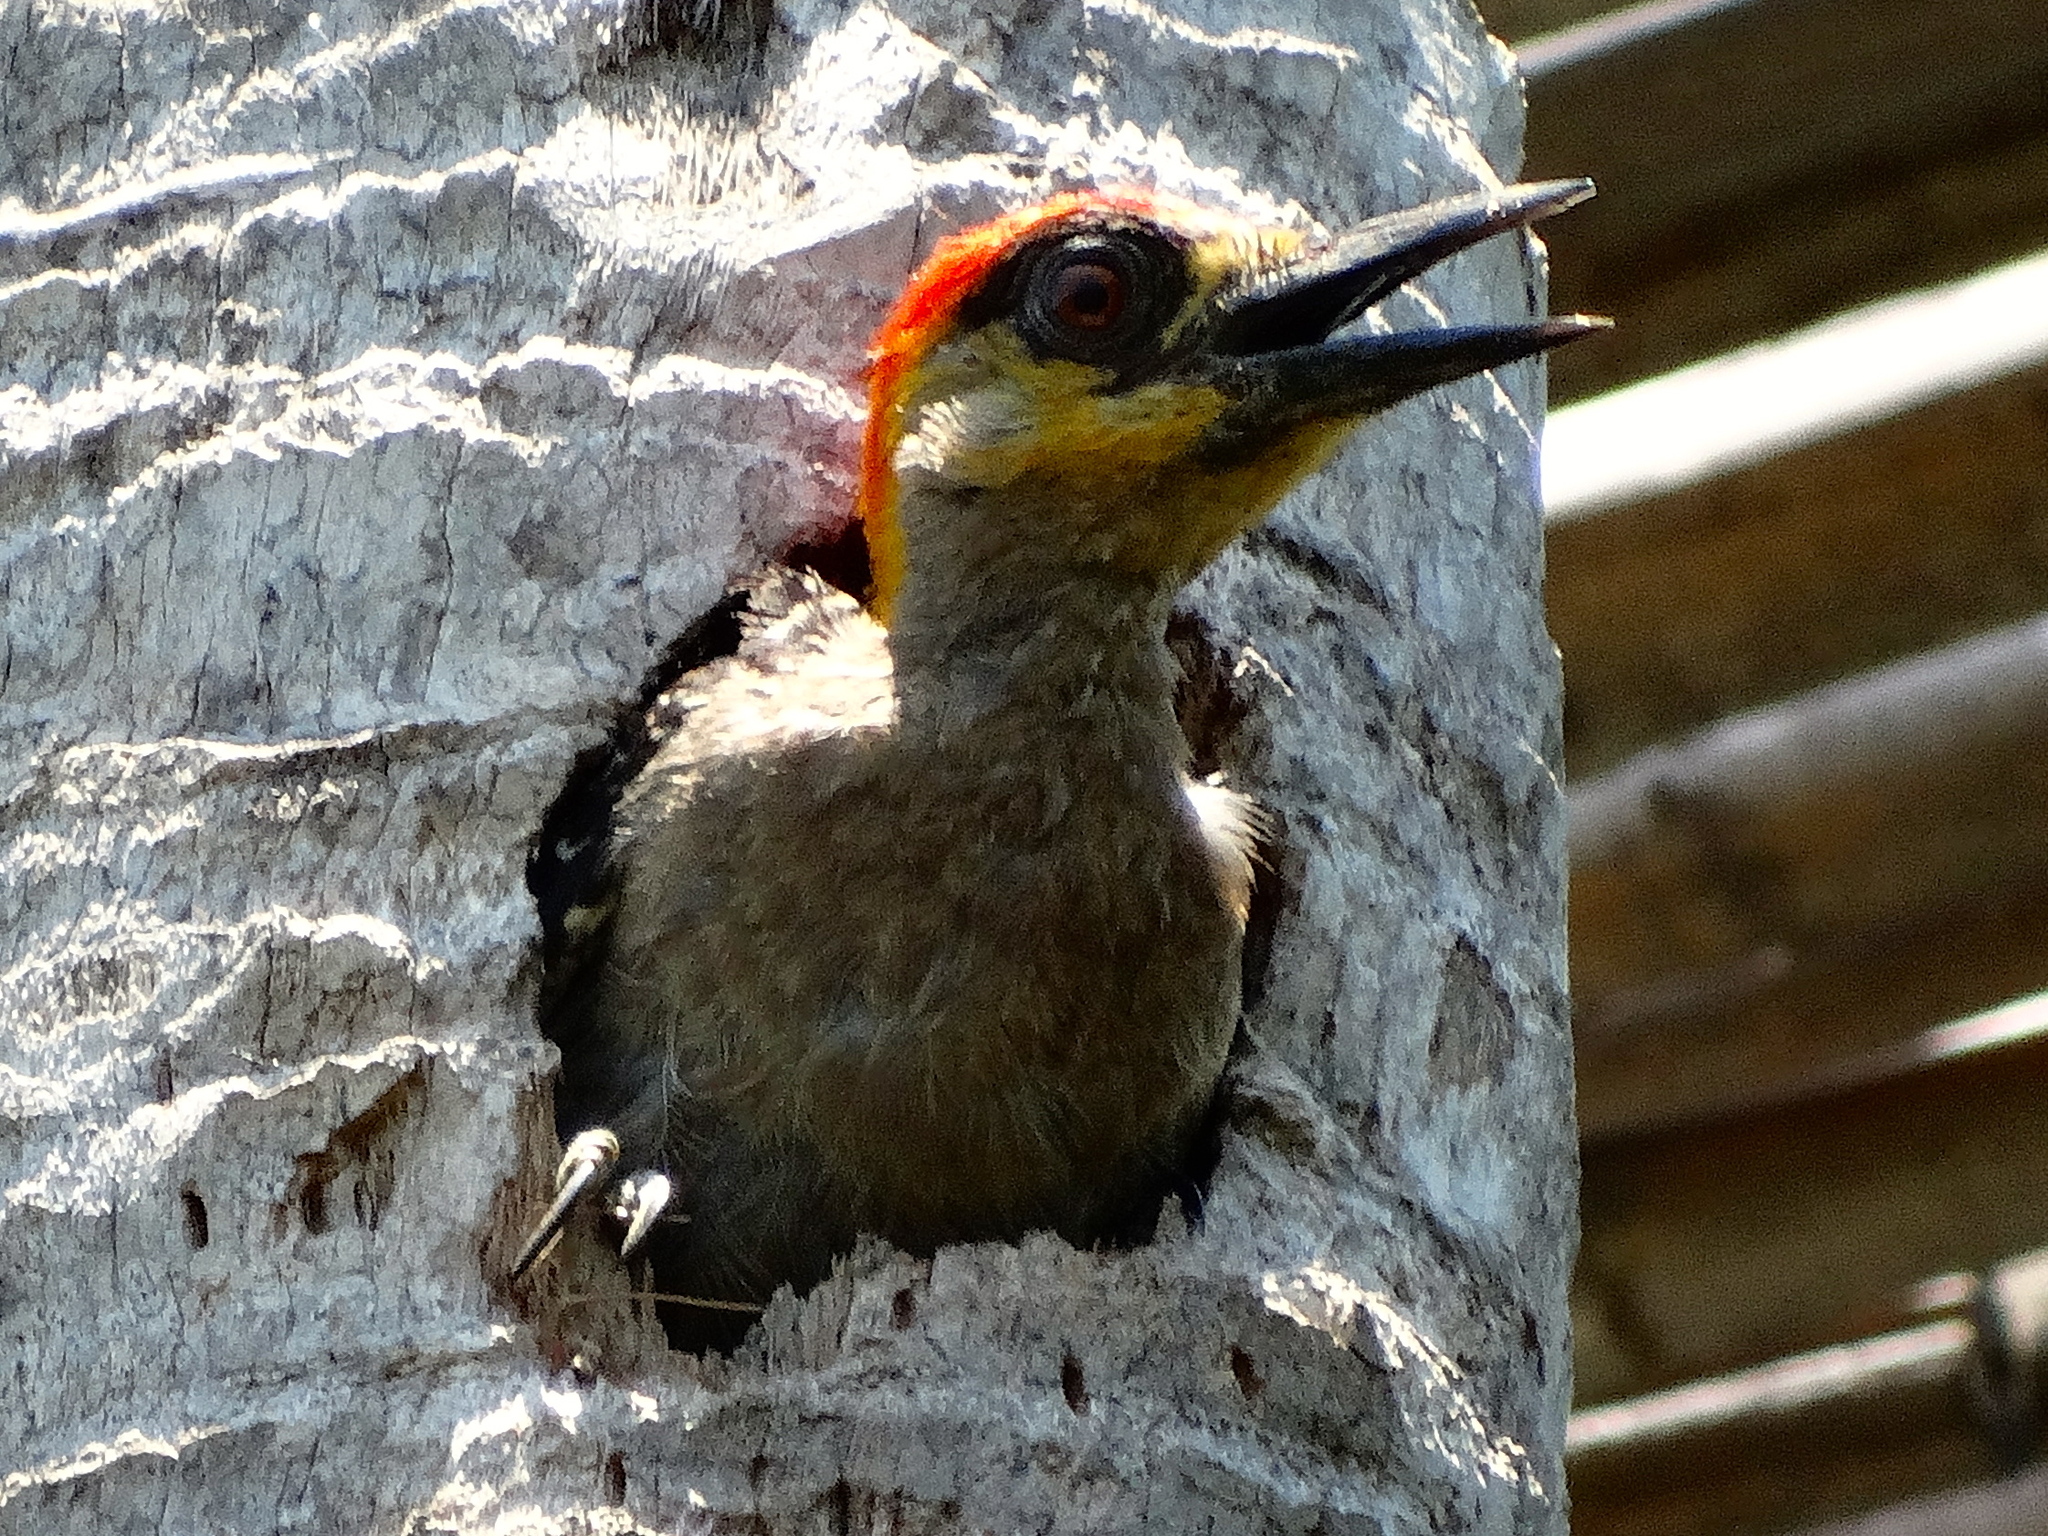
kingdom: Animalia
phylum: Chordata
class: Aves
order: Piciformes
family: Picidae
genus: Melanerpes
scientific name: Melanerpes chrysogenys
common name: Golden-cheeked woodpecker
